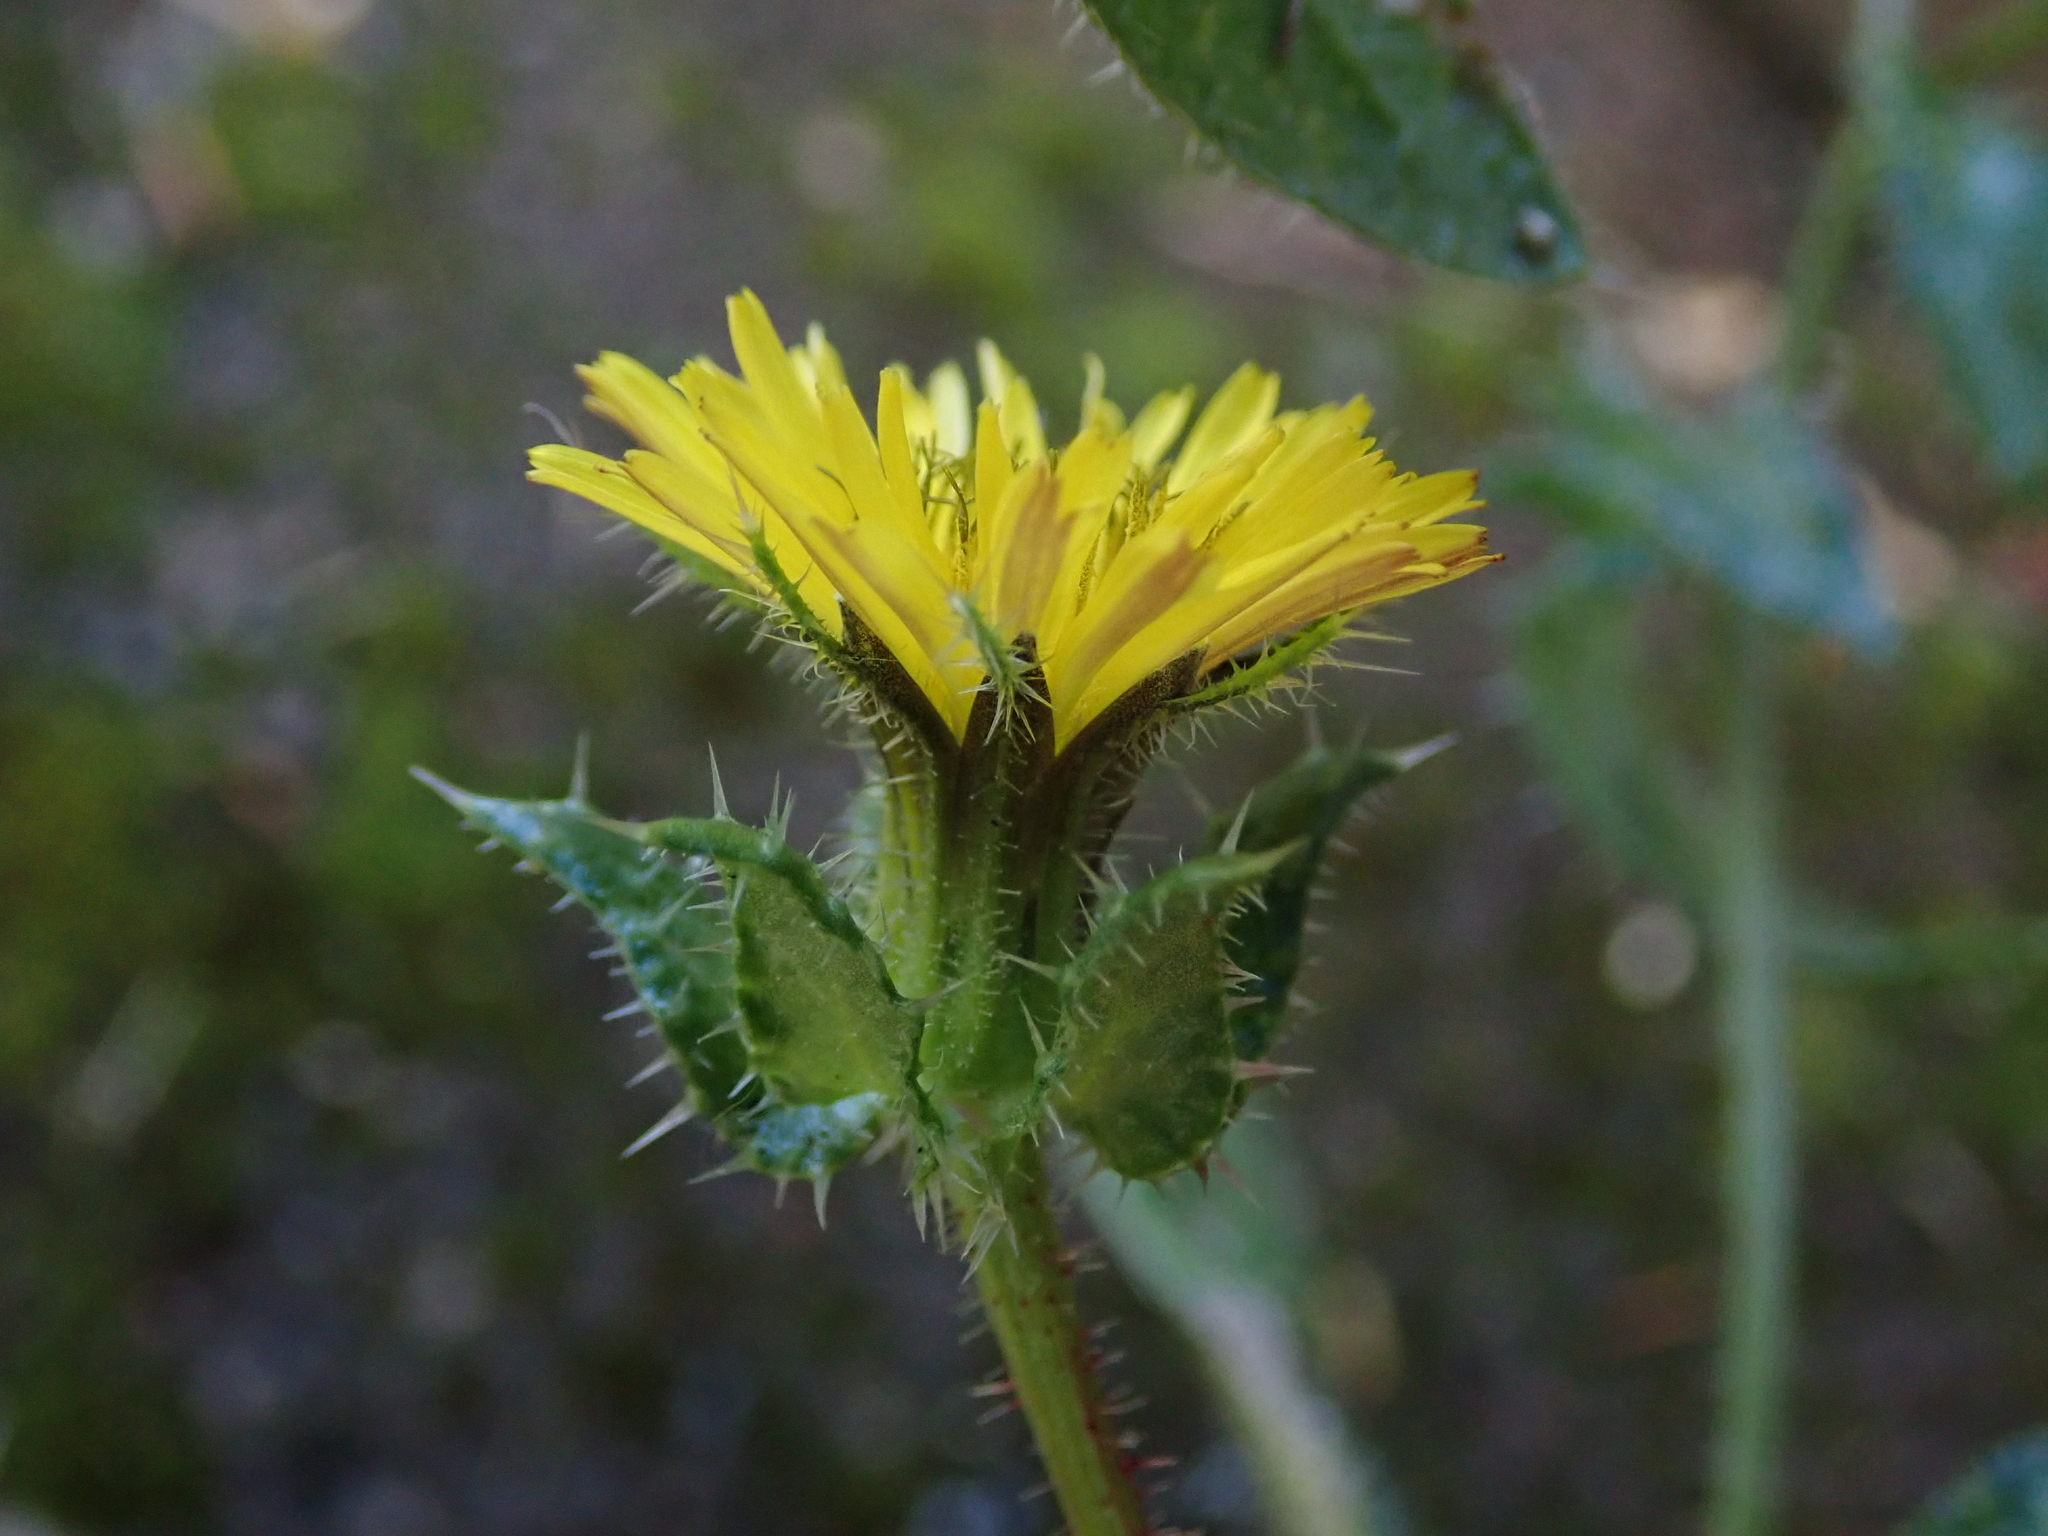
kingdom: Plantae
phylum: Tracheophyta
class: Magnoliopsida
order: Asterales
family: Asteraceae
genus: Helminthotheca
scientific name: Helminthotheca echioides
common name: Ox-tongue
